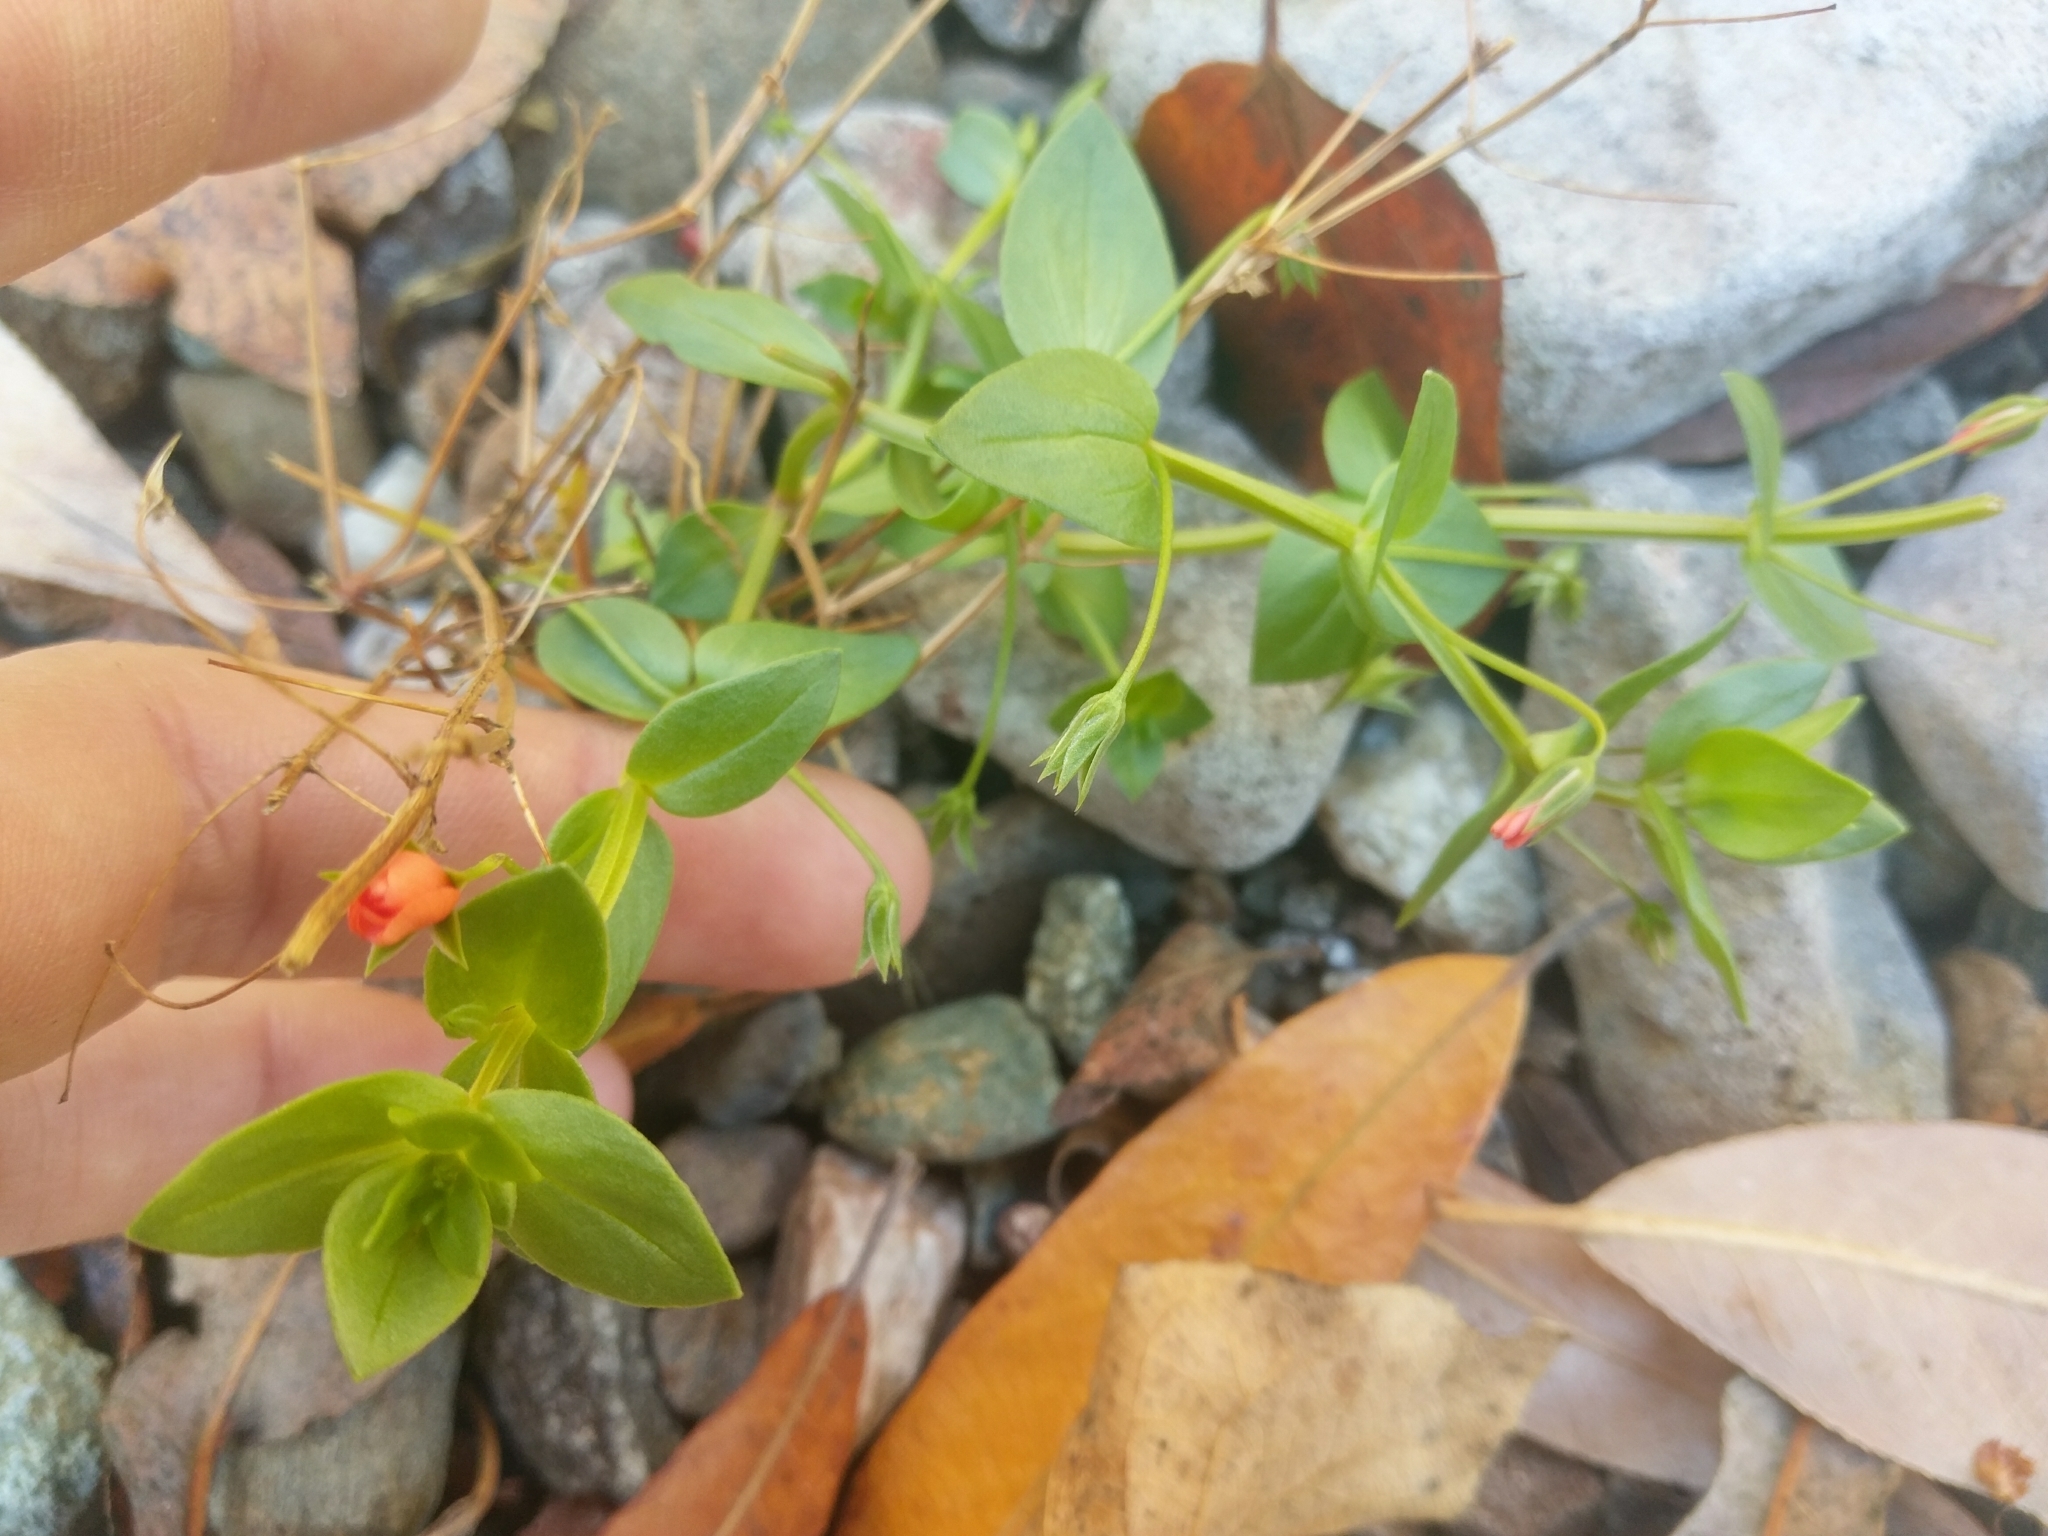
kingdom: Plantae
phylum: Tracheophyta
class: Magnoliopsida
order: Ericales
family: Primulaceae
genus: Lysimachia
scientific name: Lysimachia arvensis
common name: Scarlet pimpernel
